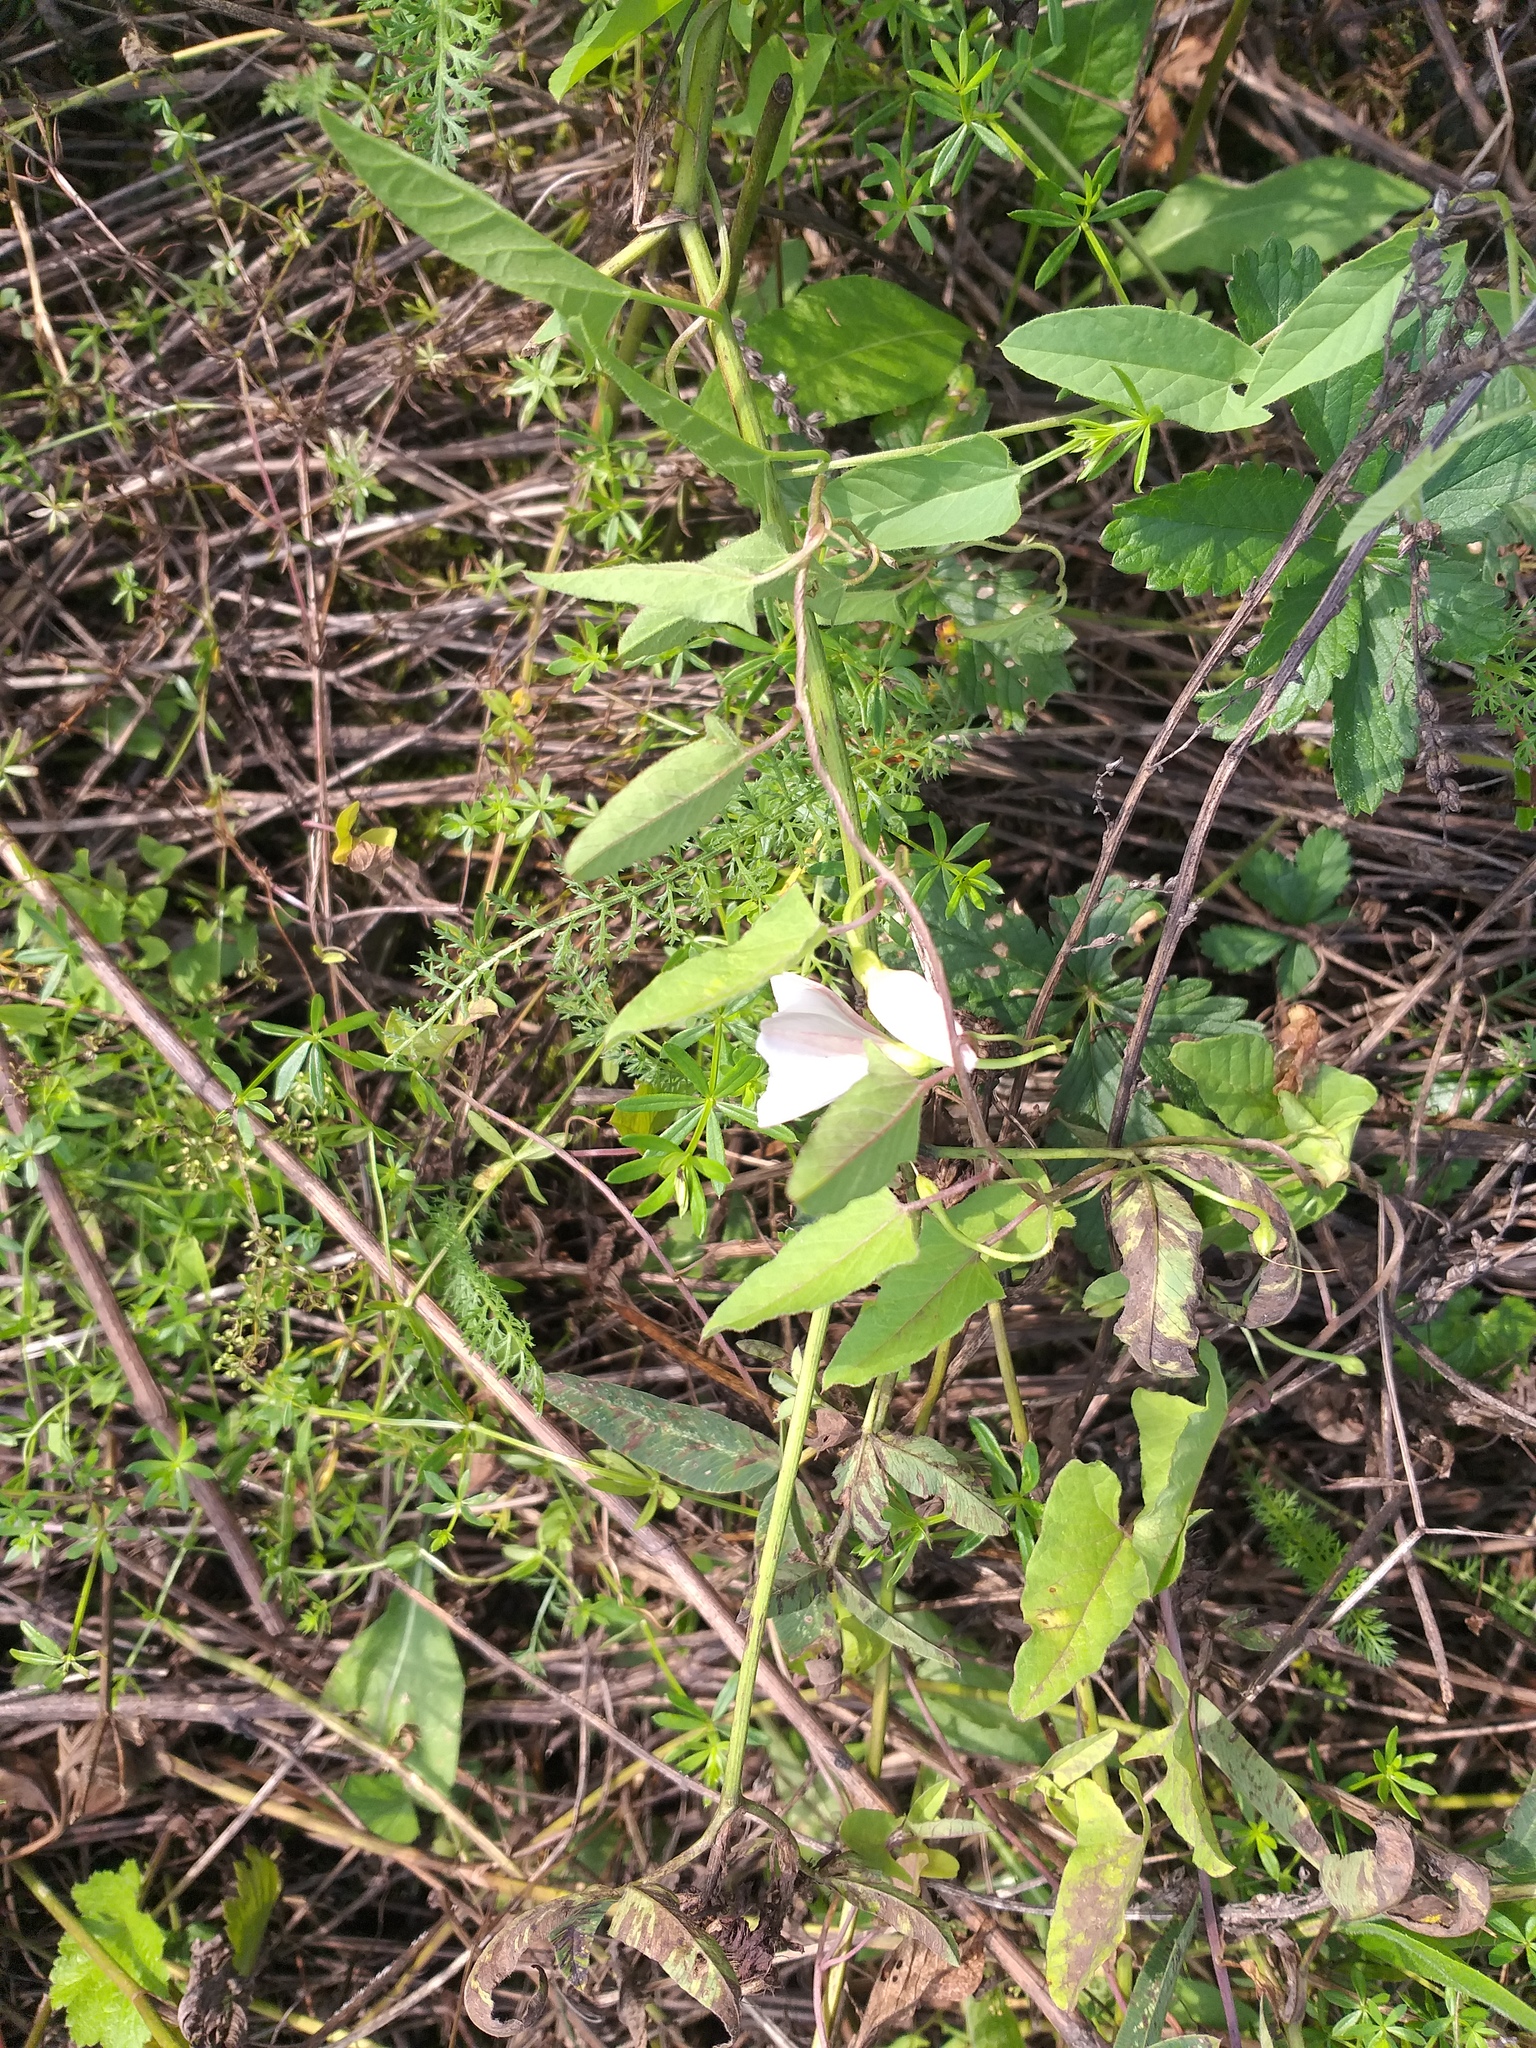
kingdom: Plantae
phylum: Tracheophyta
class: Magnoliopsida
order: Solanales
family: Convolvulaceae
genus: Convolvulus
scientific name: Convolvulus arvensis
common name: Field bindweed
